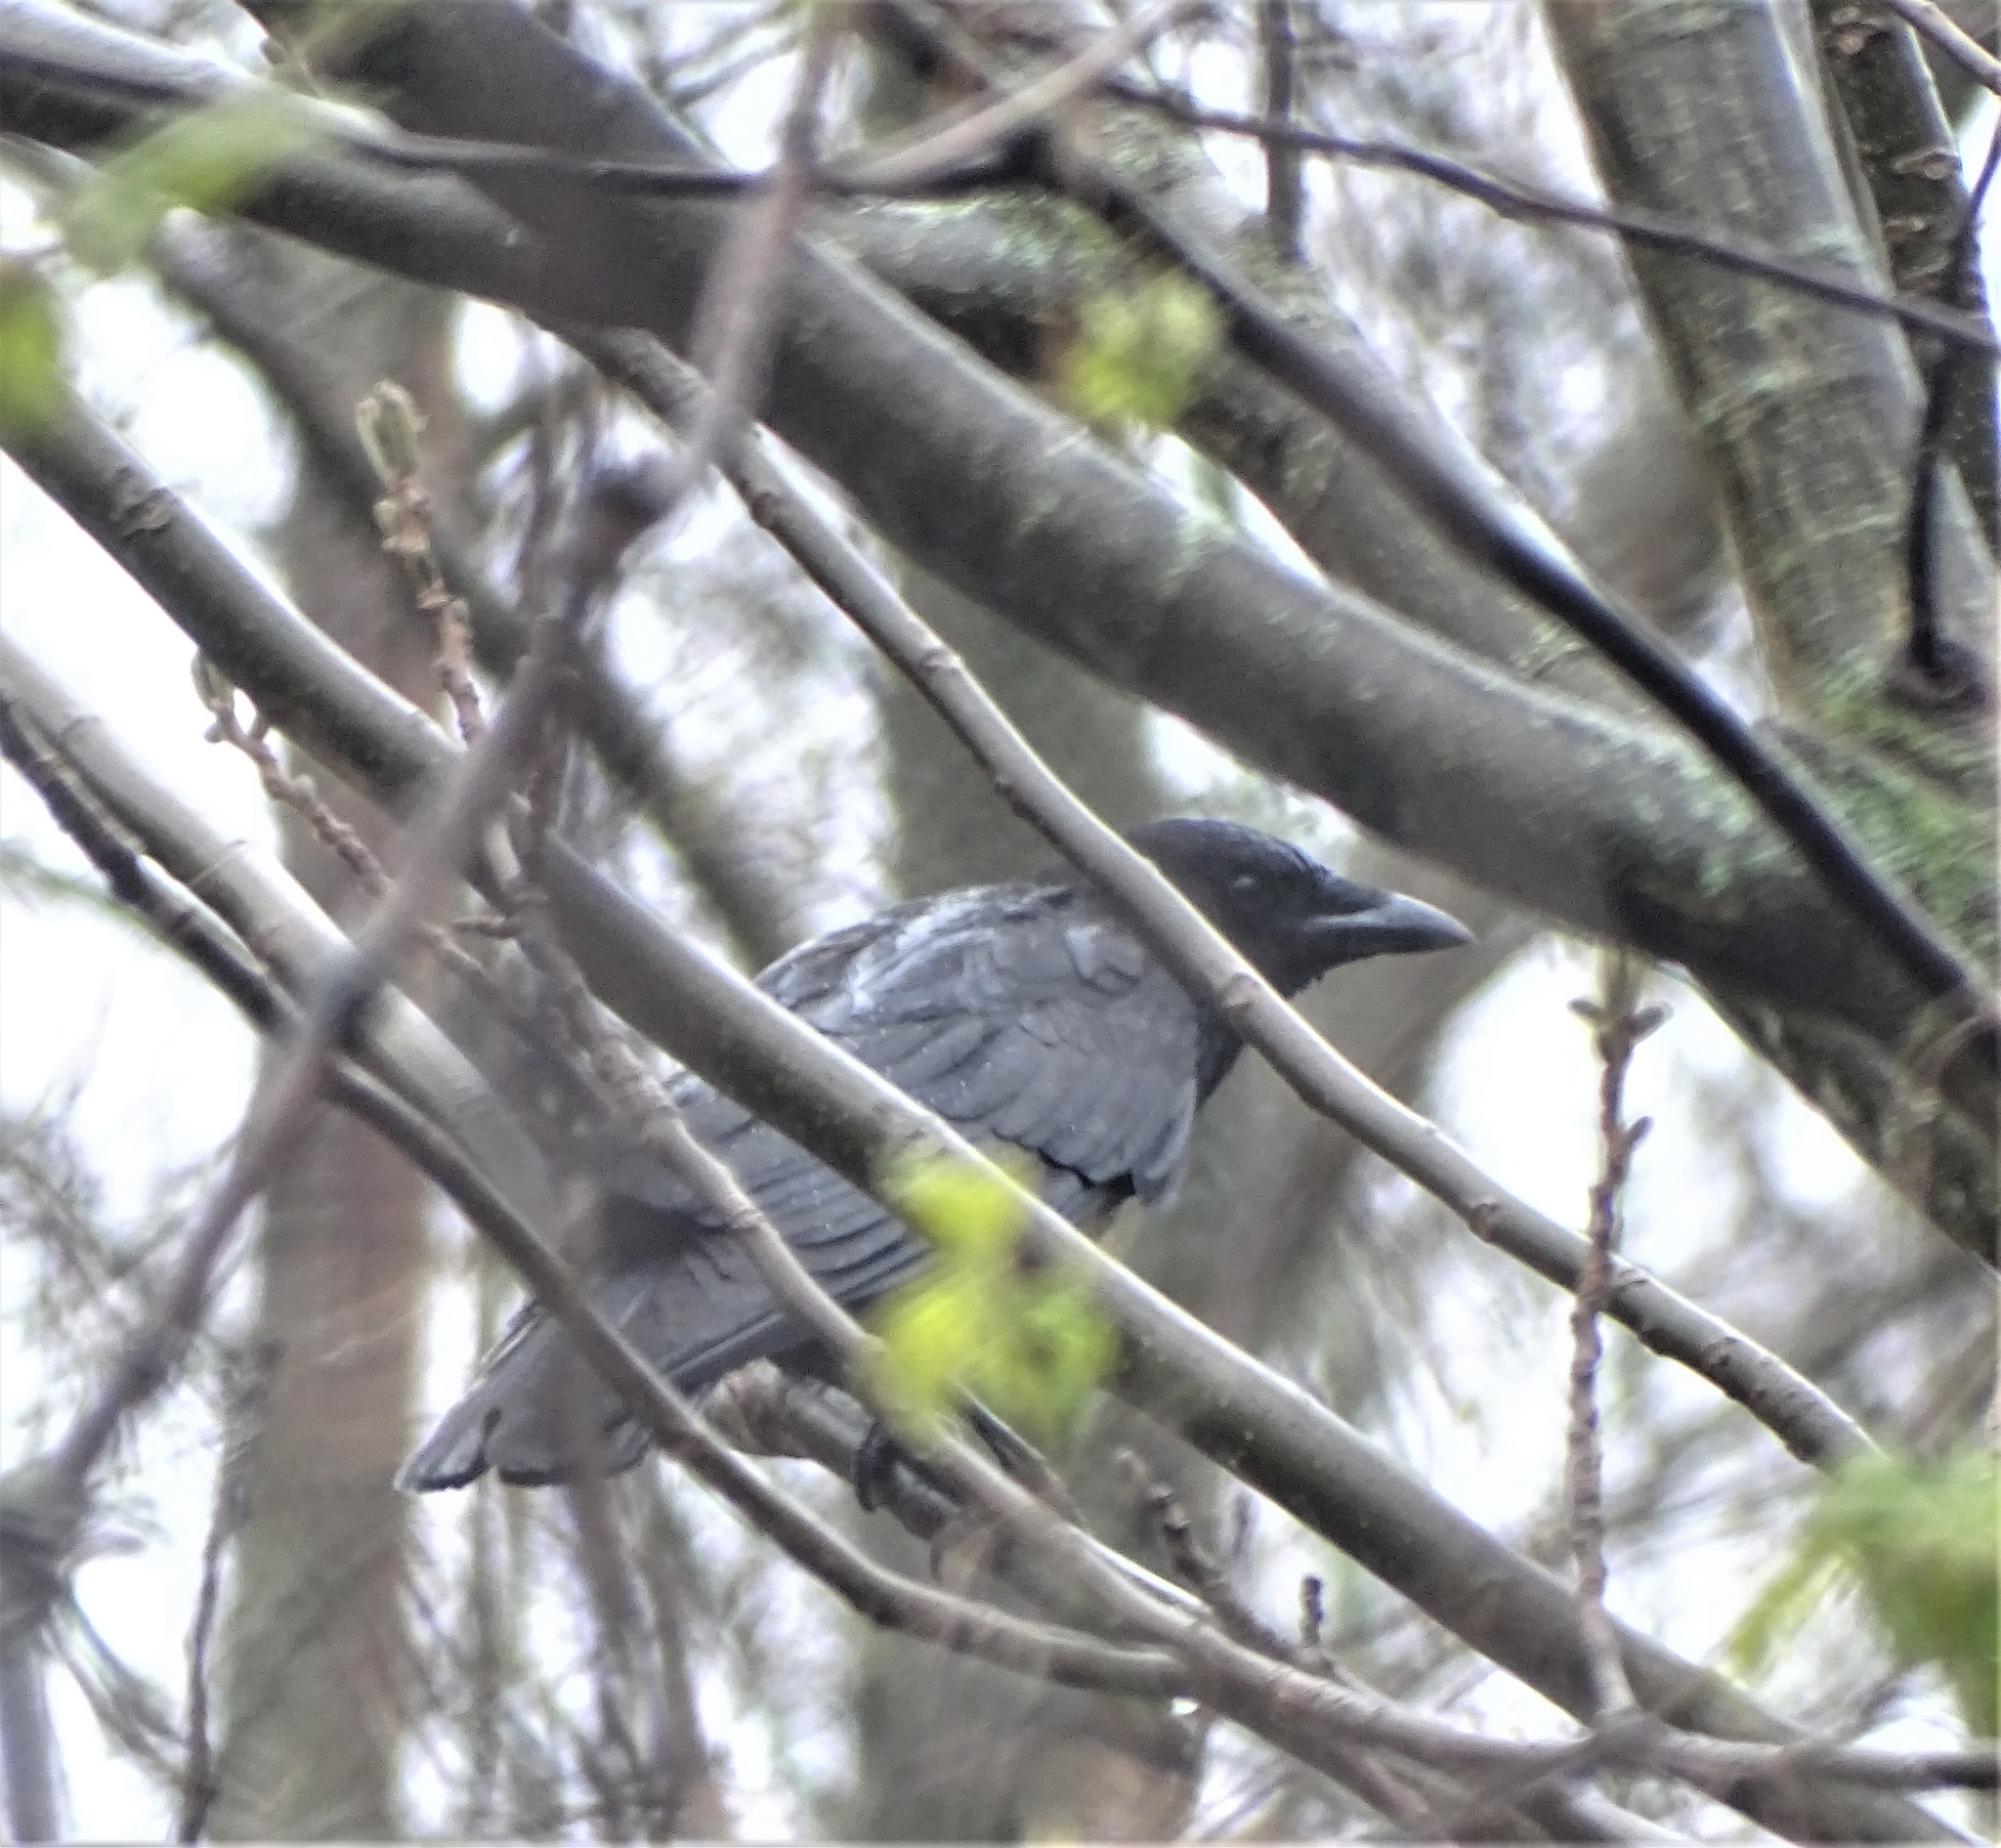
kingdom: Animalia
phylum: Chordata
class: Aves
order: Passeriformes
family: Corvidae
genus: Corvus
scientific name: Corvus brachyrhynchos
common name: American crow
